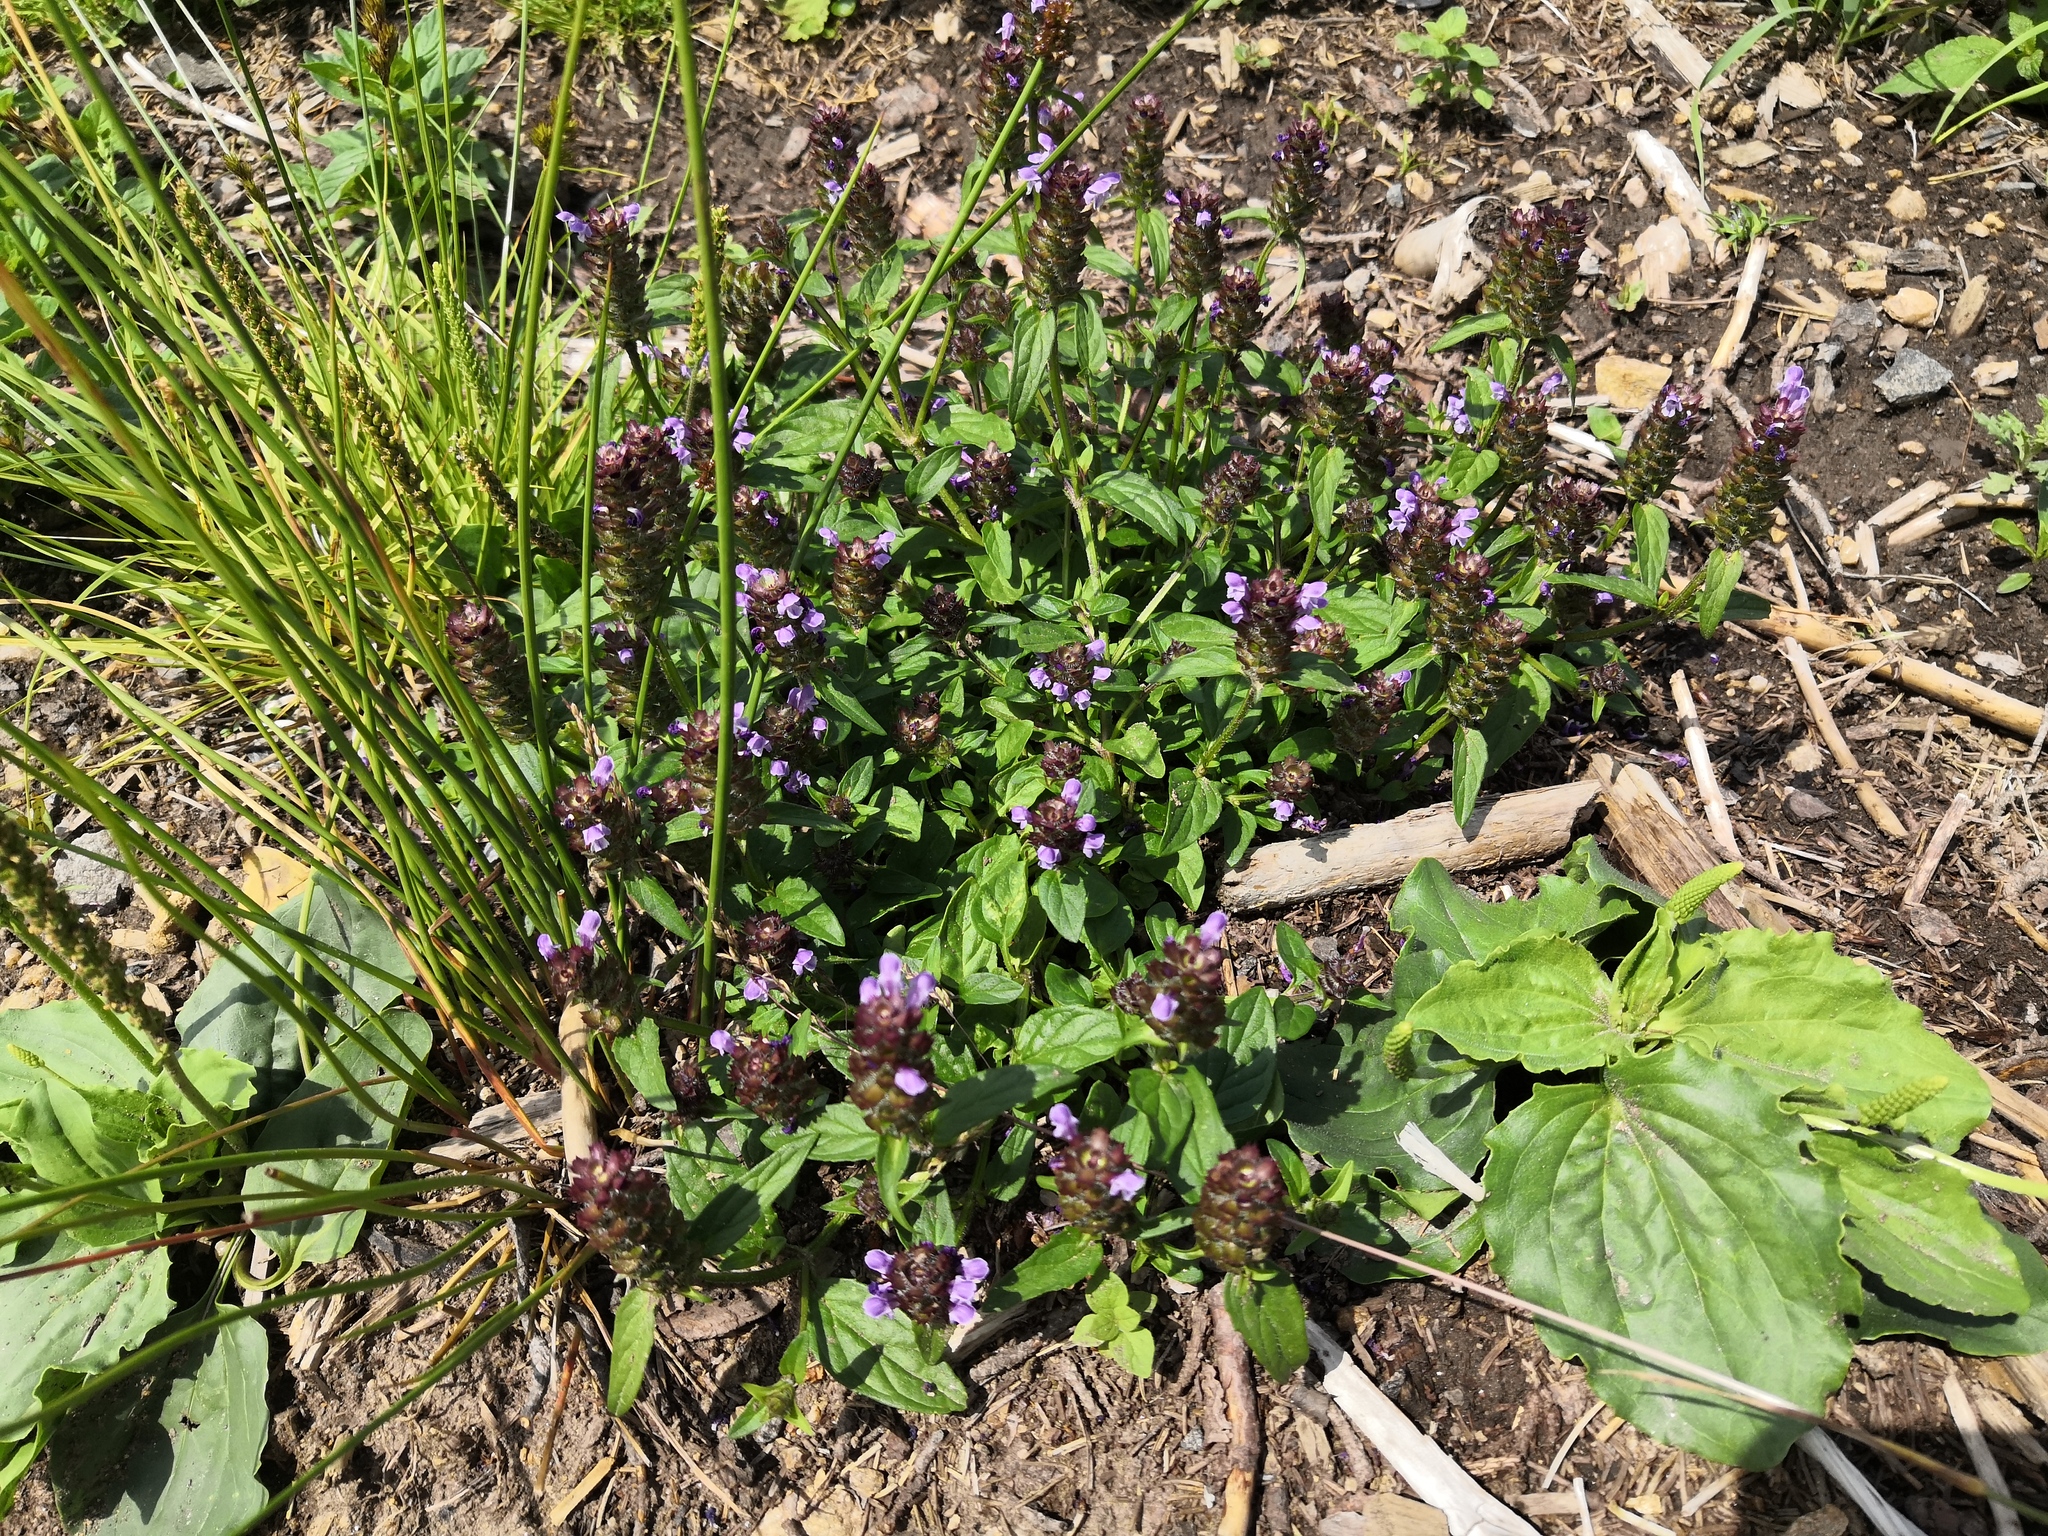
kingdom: Plantae
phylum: Tracheophyta
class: Magnoliopsida
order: Lamiales
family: Lamiaceae
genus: Prunella
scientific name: Prunella vulgaris
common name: Heal-all
